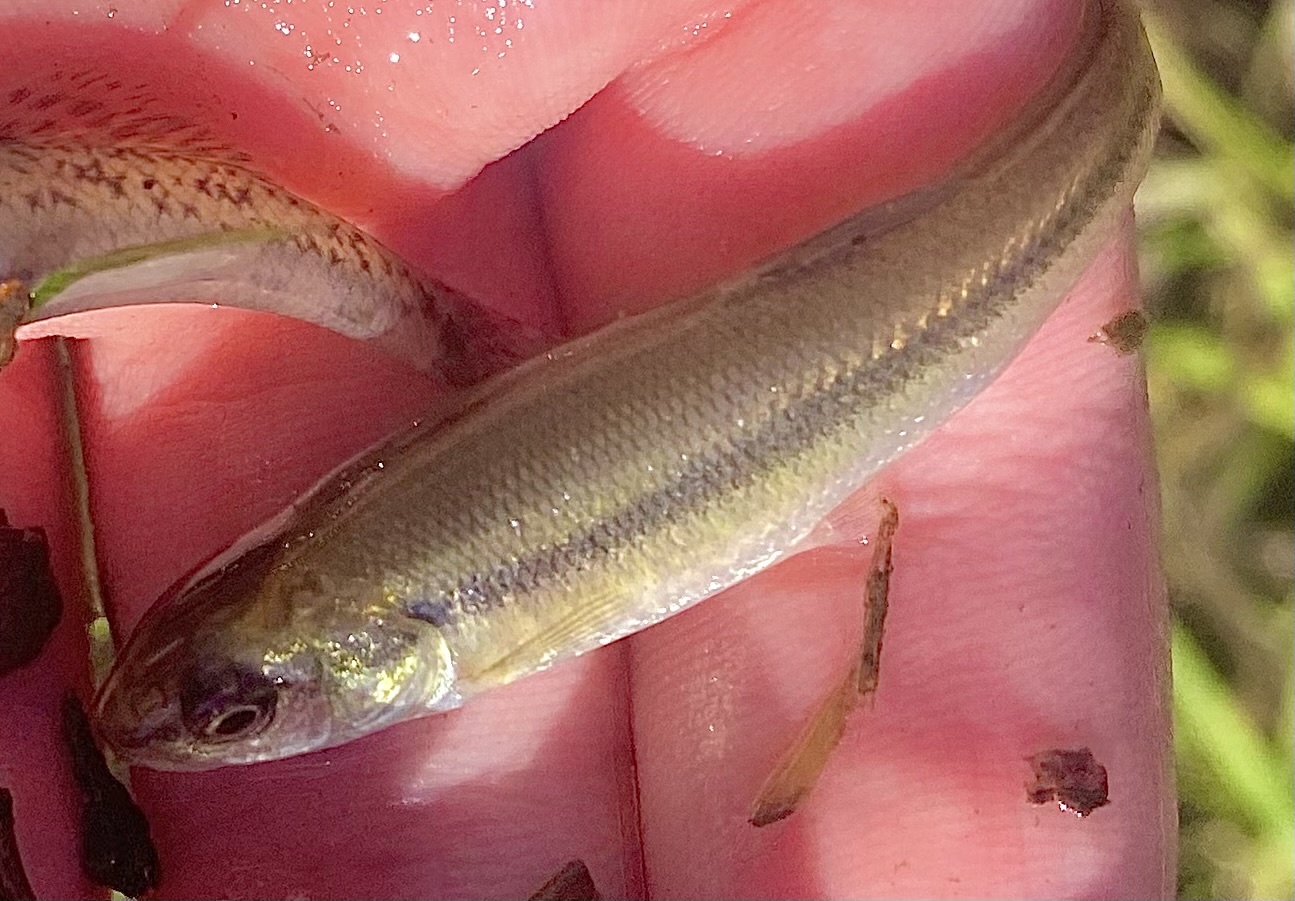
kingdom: Animalia
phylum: Chordata
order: Cypriniformes
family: Cyprinidae
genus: Semotilus
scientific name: Semotilus atromaculatus
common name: Creek chub
